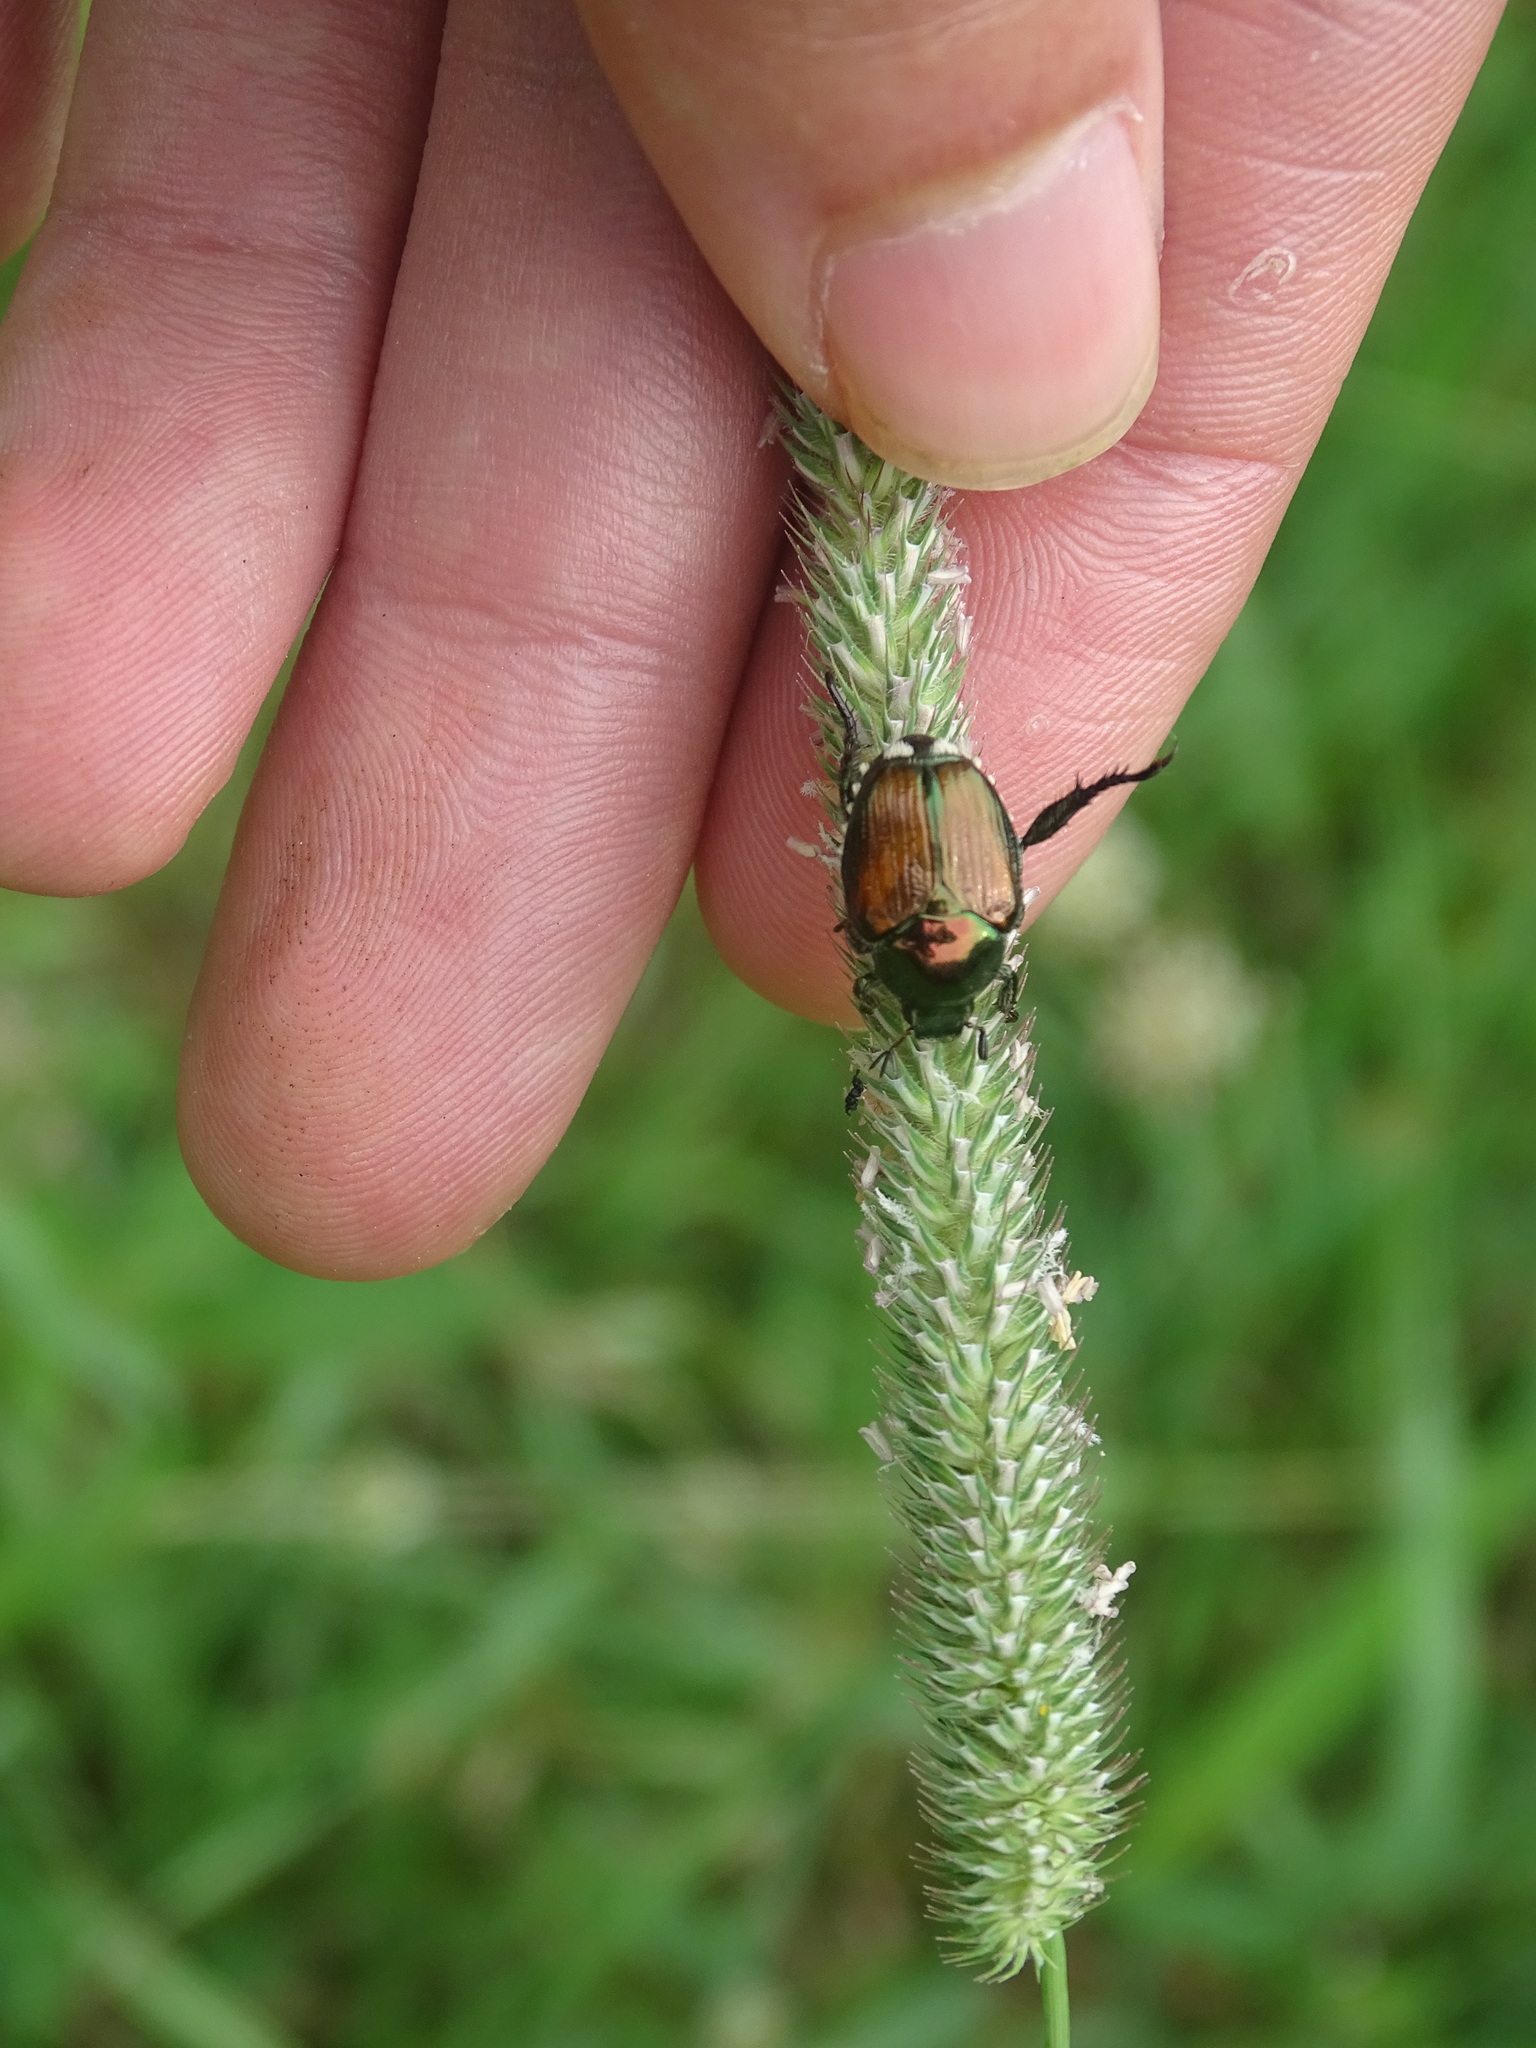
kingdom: Animalia
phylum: Arthropoda
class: Insecta
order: Coleoptera
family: Scarabaeidae
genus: Popillia
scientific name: Popillia japonica
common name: Japanese beetle
